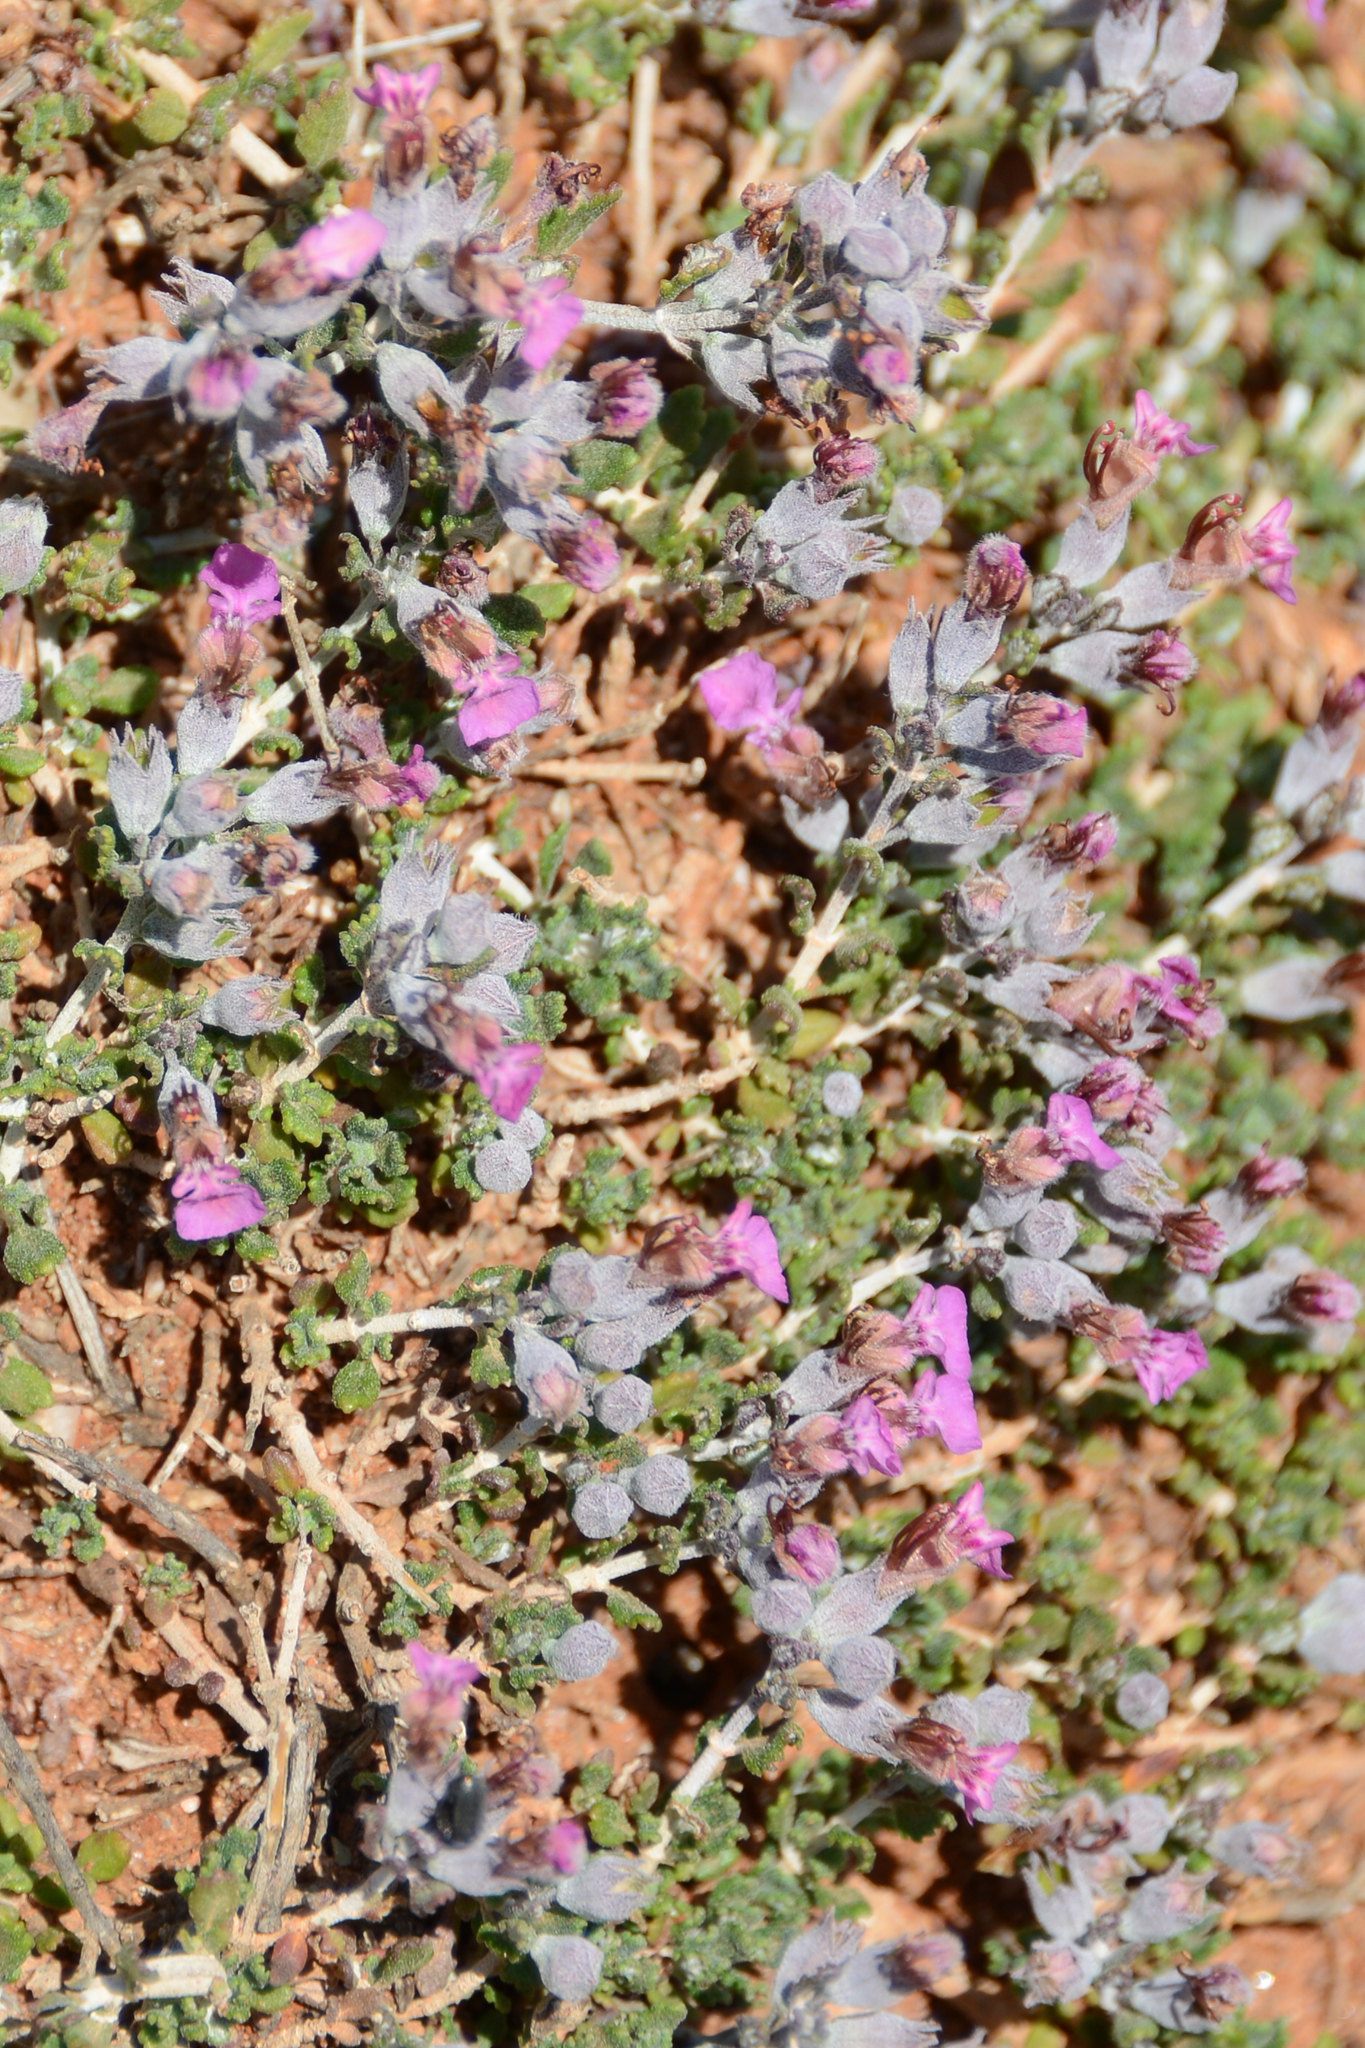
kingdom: Plantae
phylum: Tracheophyta
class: Magnoliopsida
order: Lamiales
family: Lamiaceae
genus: Teucrium
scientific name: Teucrium microphyllum
